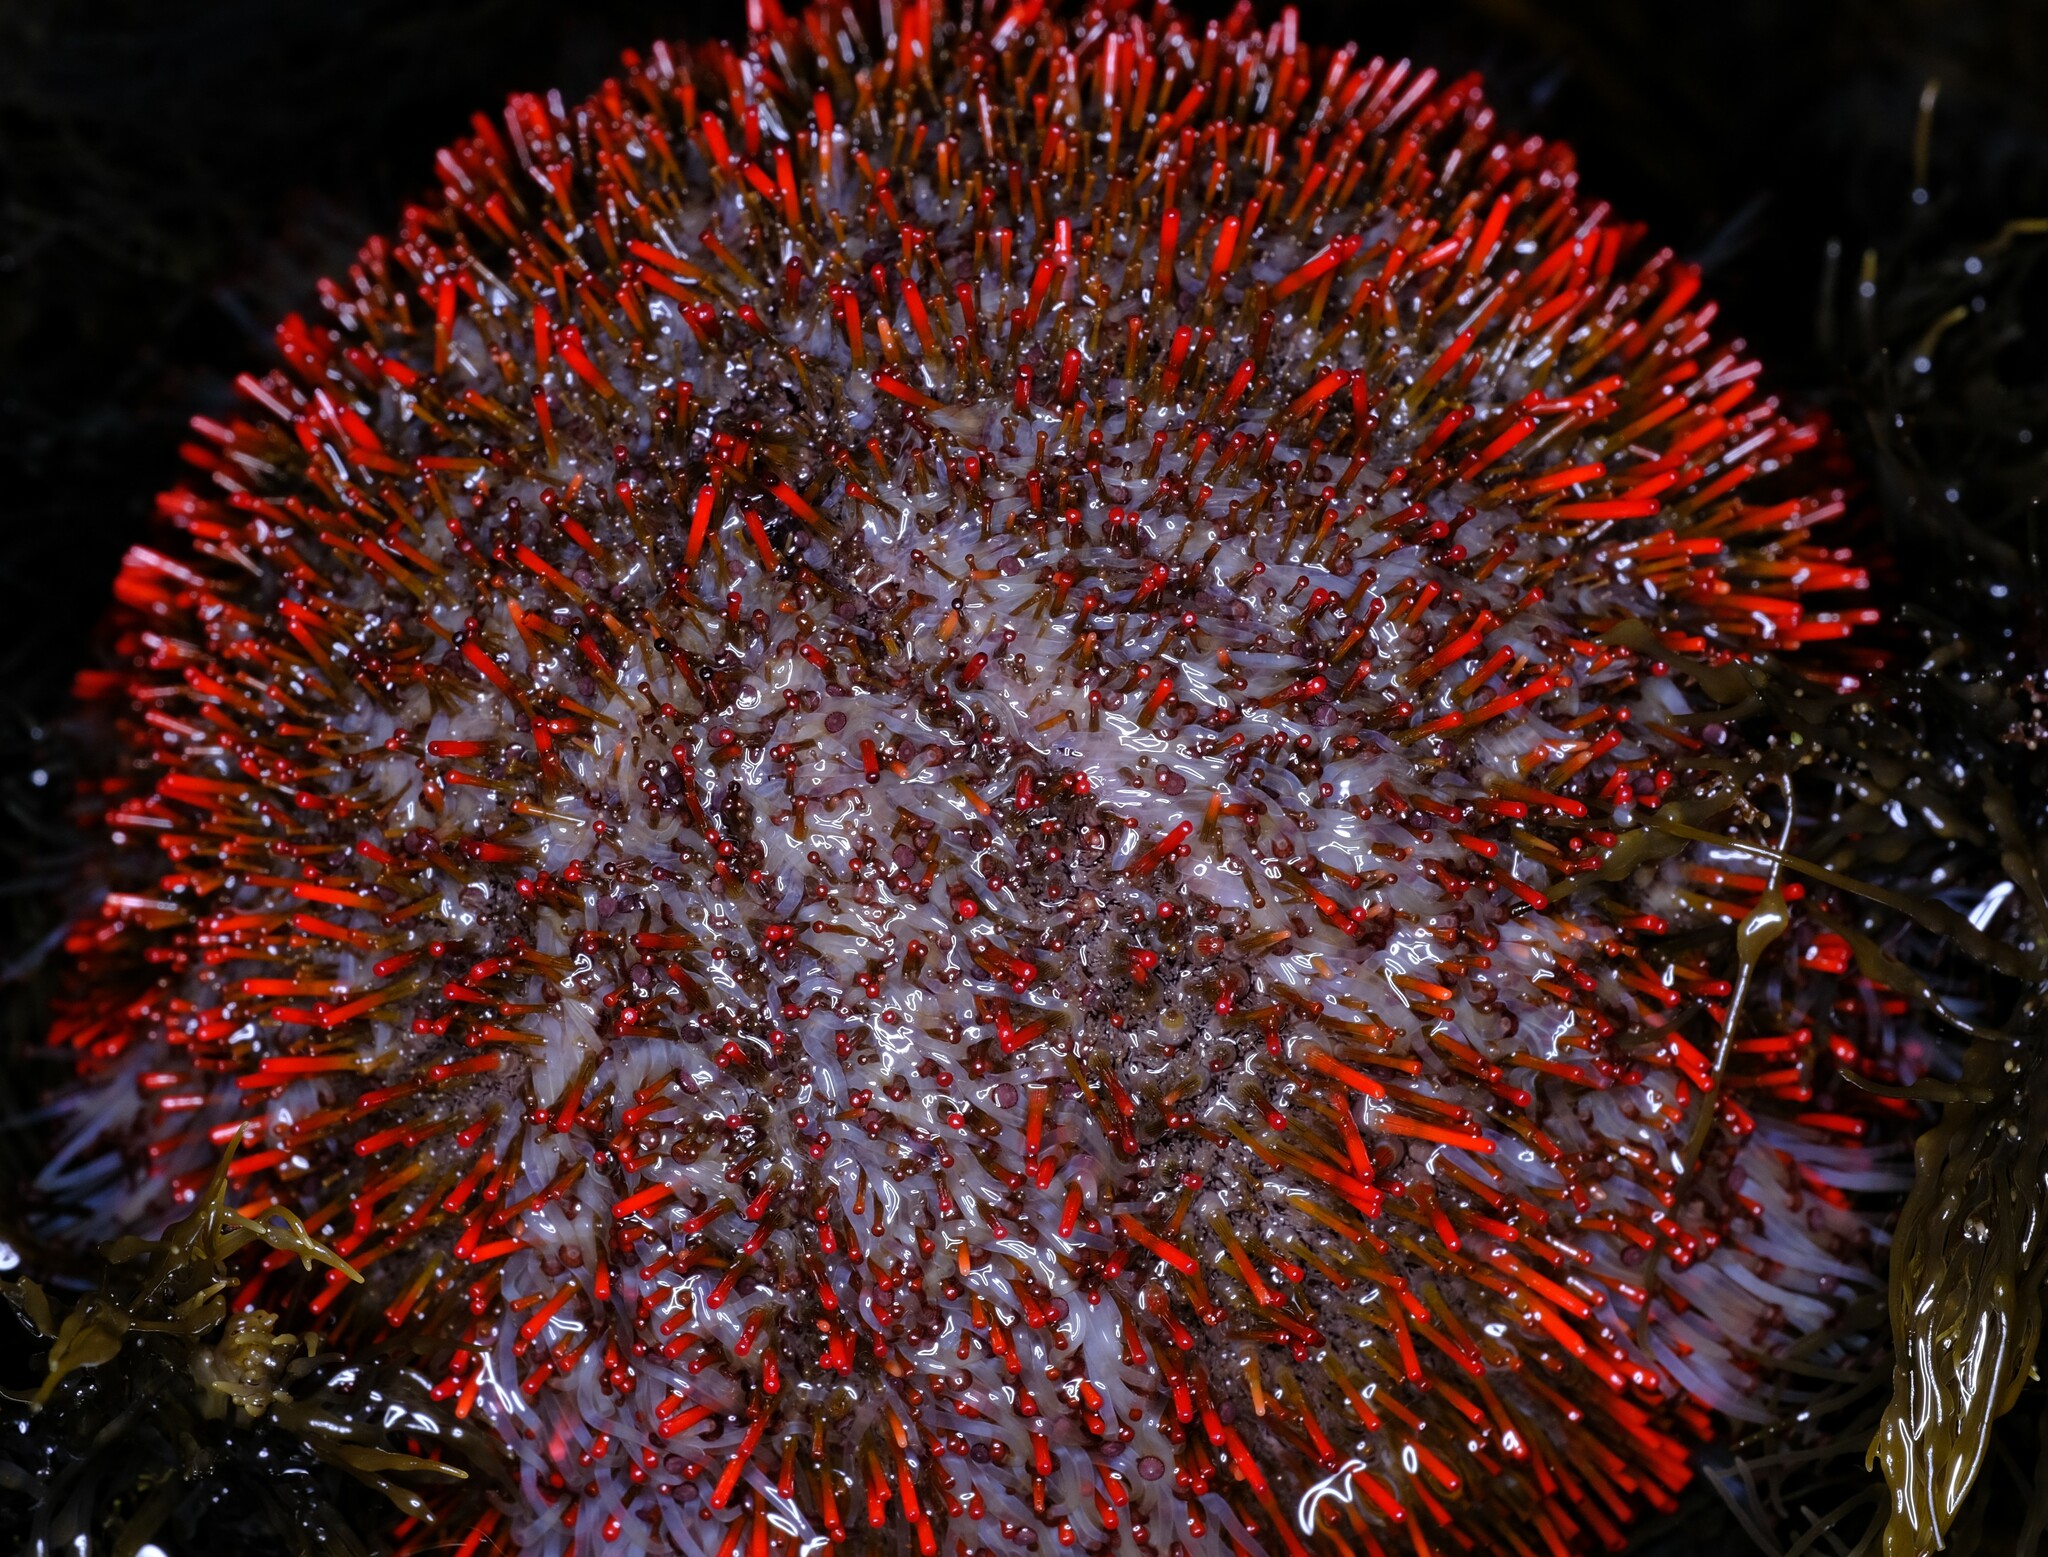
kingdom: Animalia
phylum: Echinodermata
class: Echinoidea
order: Camarodonta
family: Temnopleuridae
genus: Holopneustes
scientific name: Holopneustes porosissimus
